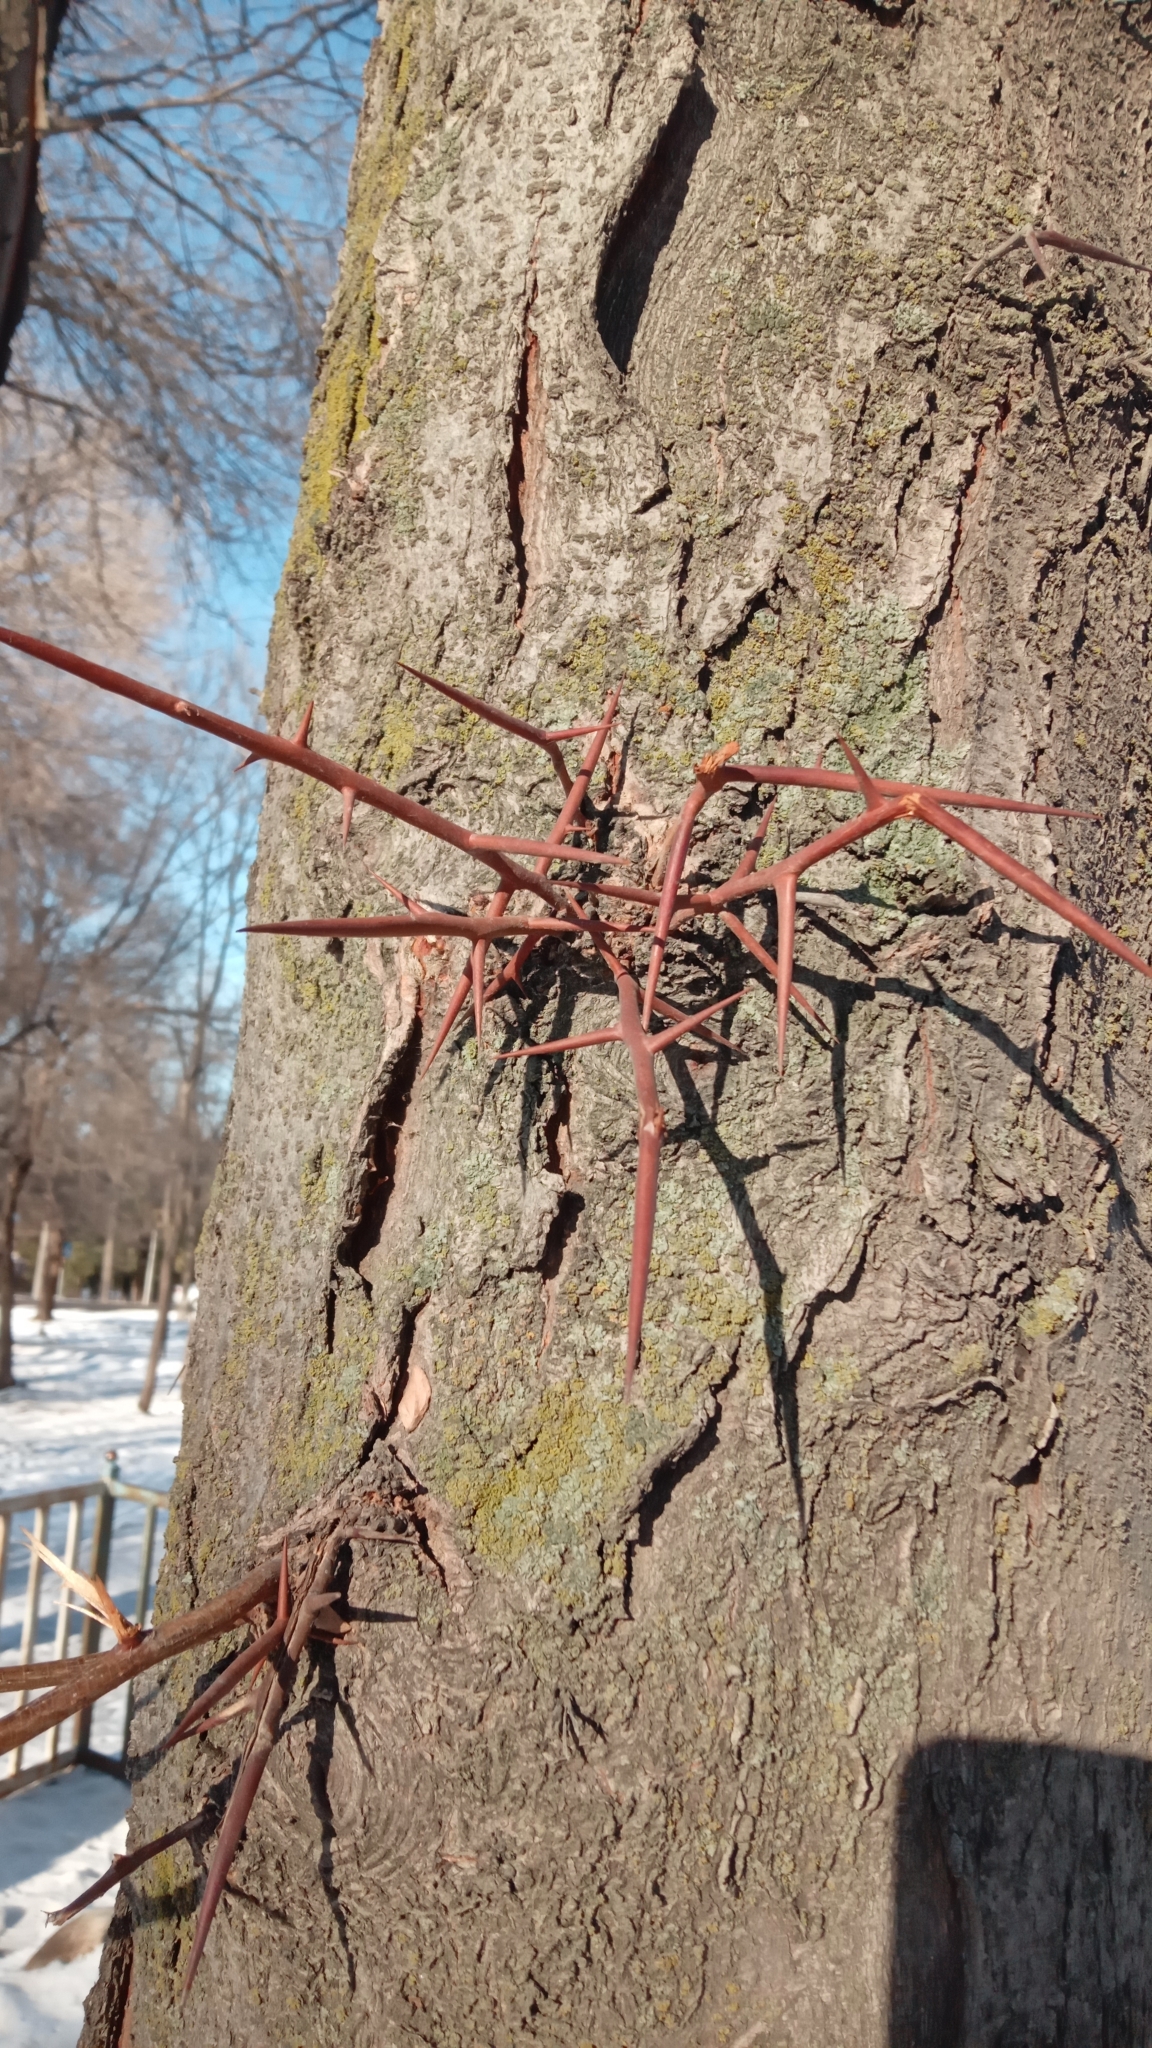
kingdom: Plantae
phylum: Tracheophyta
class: Magnoliopsida
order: Fabales
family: Fabaceae
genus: Gleditsia
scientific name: Gleditsia triacanthos
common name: Common honeylocust
